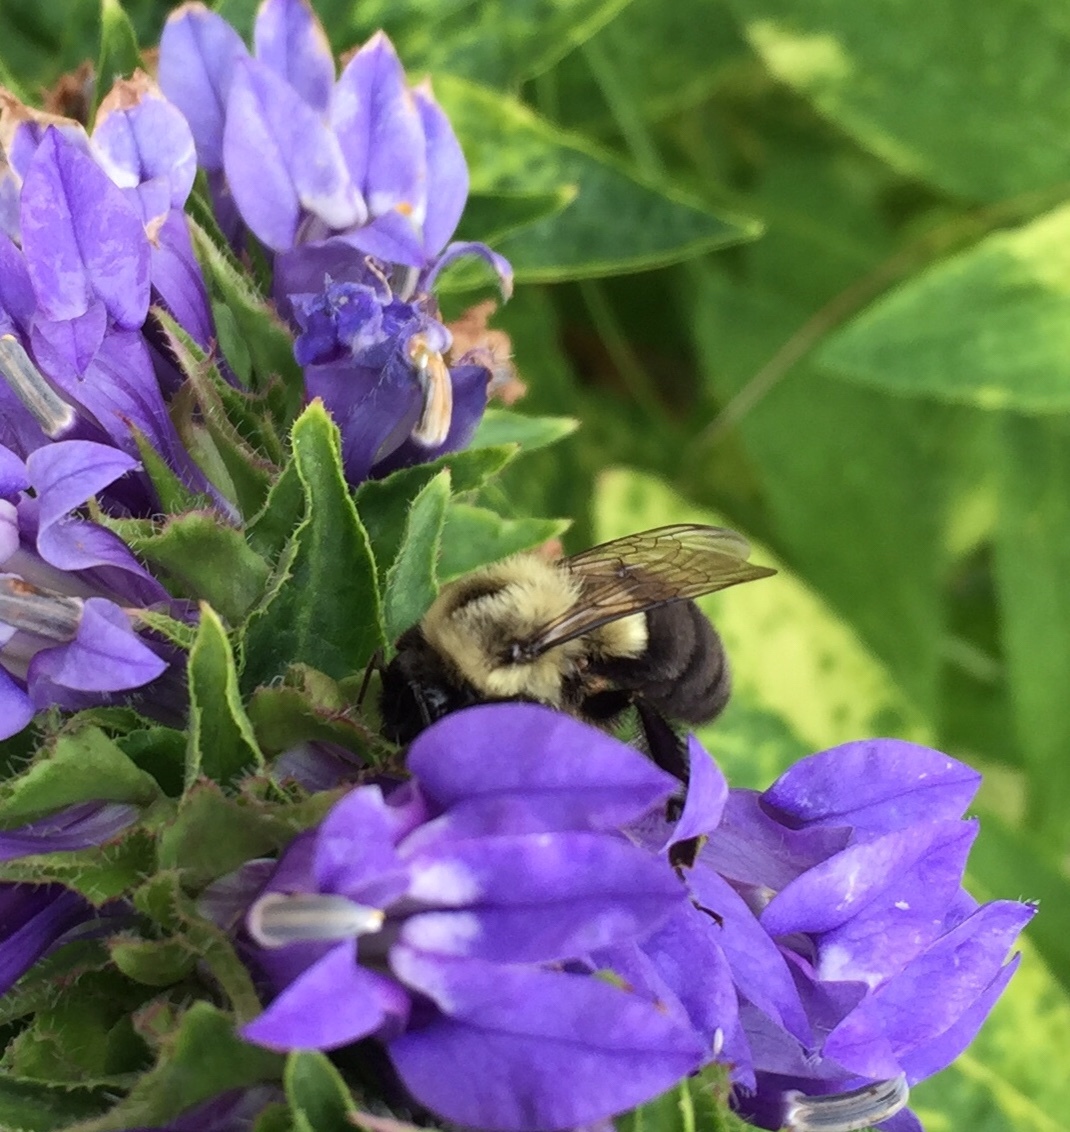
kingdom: Animalia
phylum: Arthropoda
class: Insecta
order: Hymenoptera
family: Apidae
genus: Bombus
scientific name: Bombus impatiens
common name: Common eastern bumble bee
